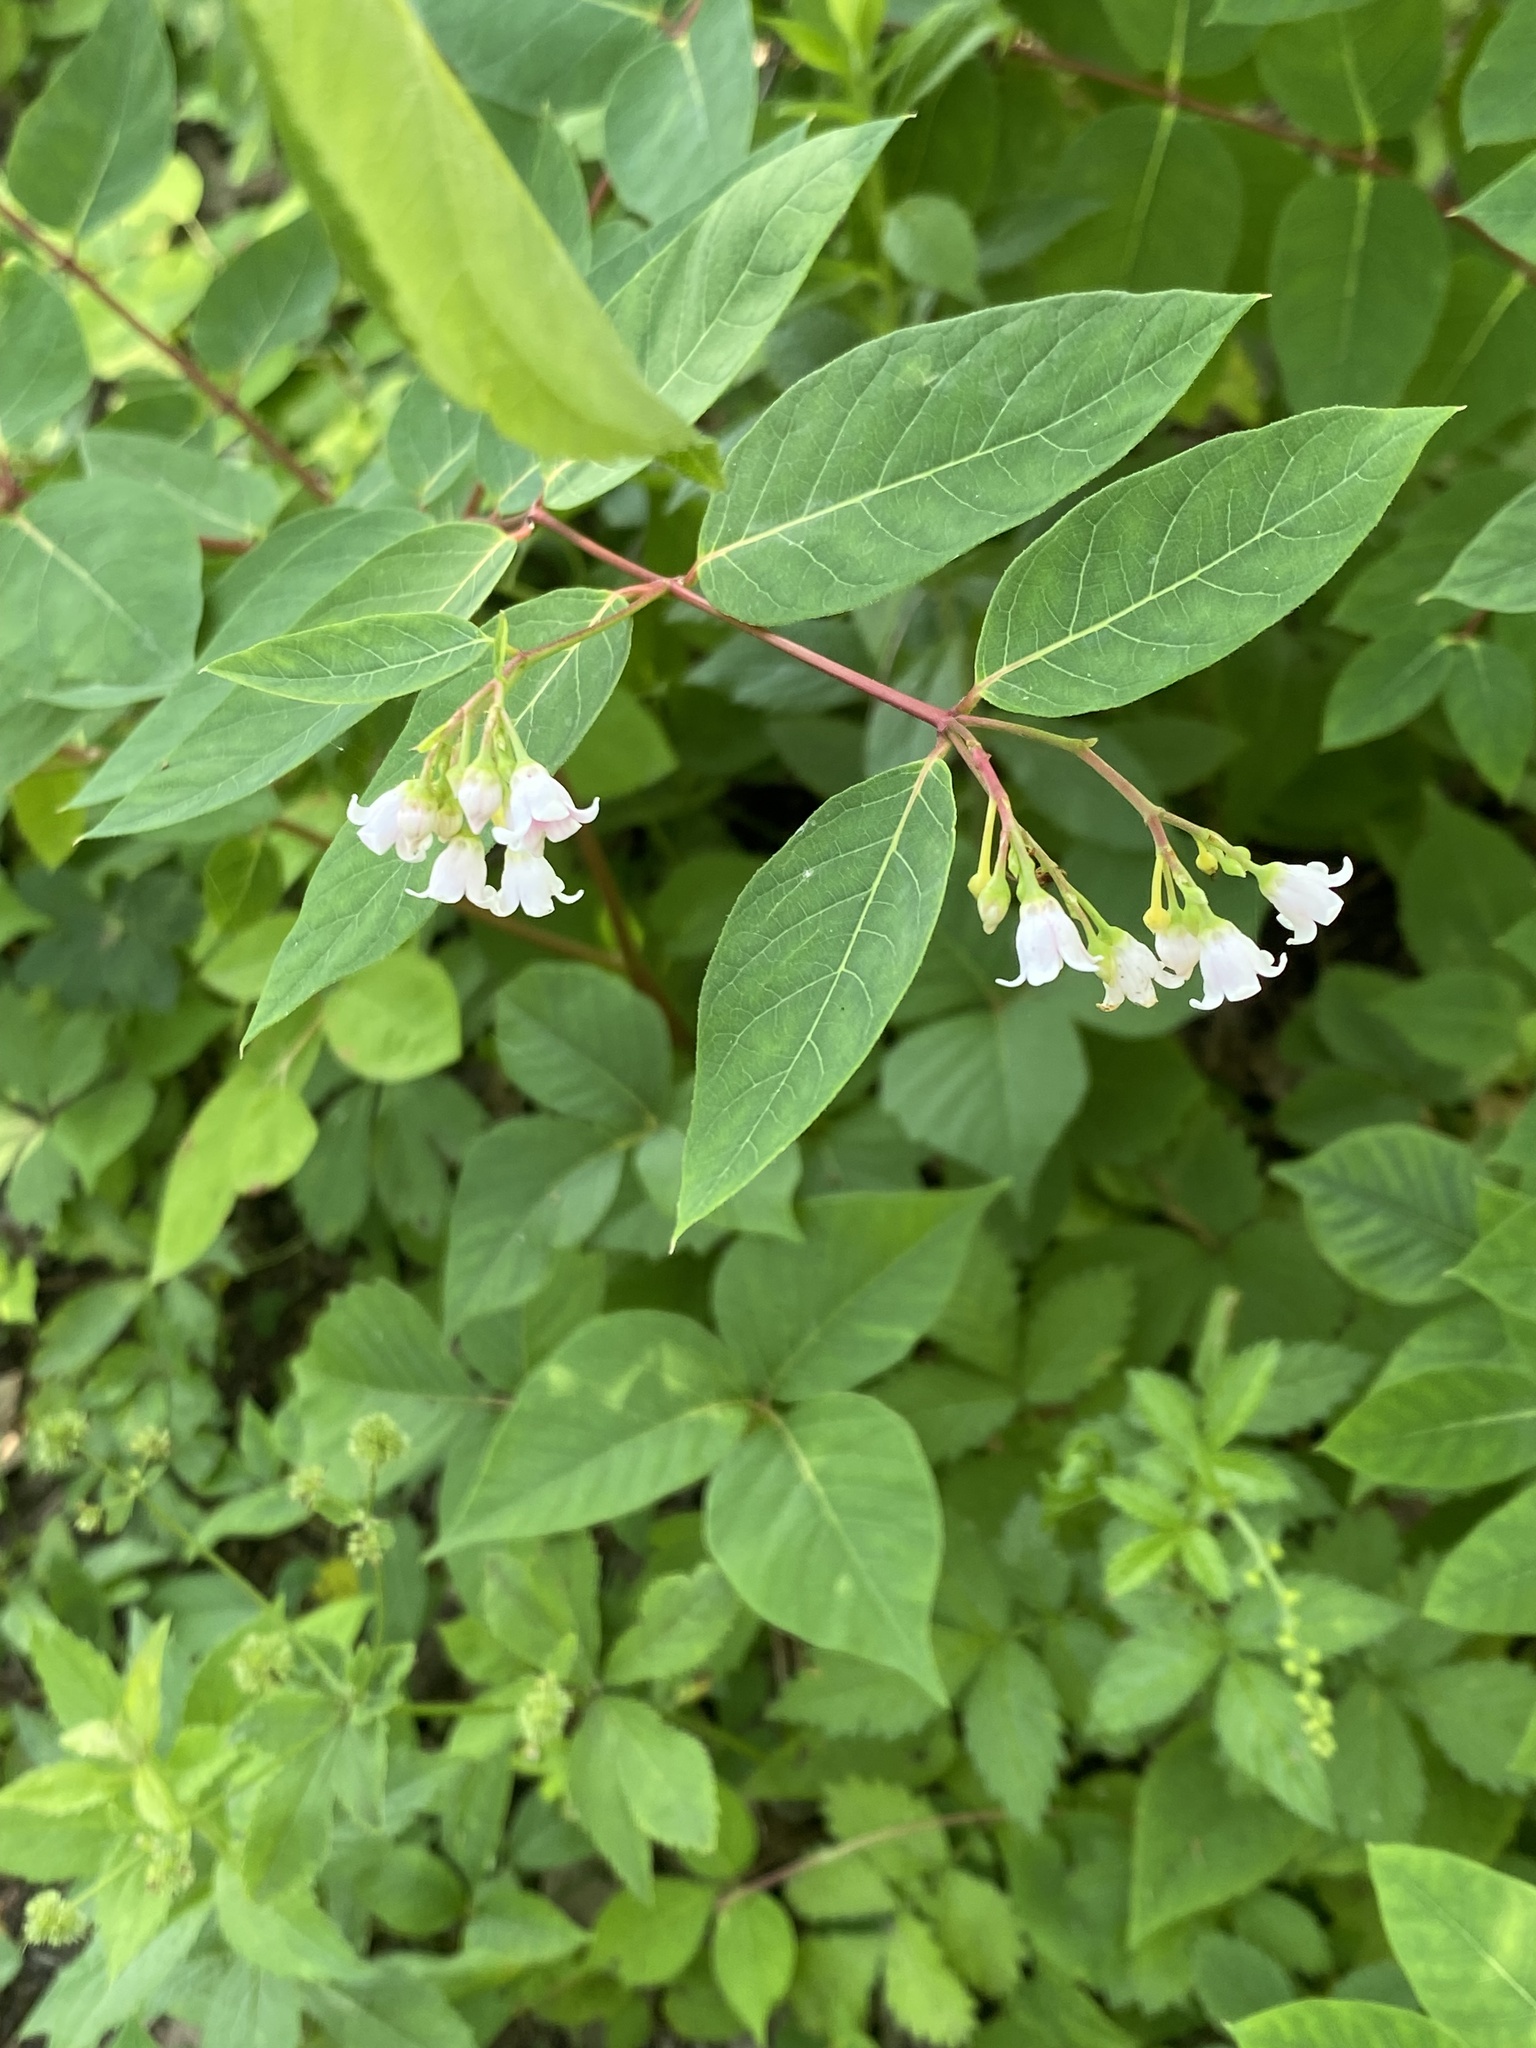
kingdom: Plantae
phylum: Tracheophyta
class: Magnoliopsida
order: Gentianales
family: Apocynaceae
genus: Apocynum
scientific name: Apocynum androsaemifolium
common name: Spreading dogbane
